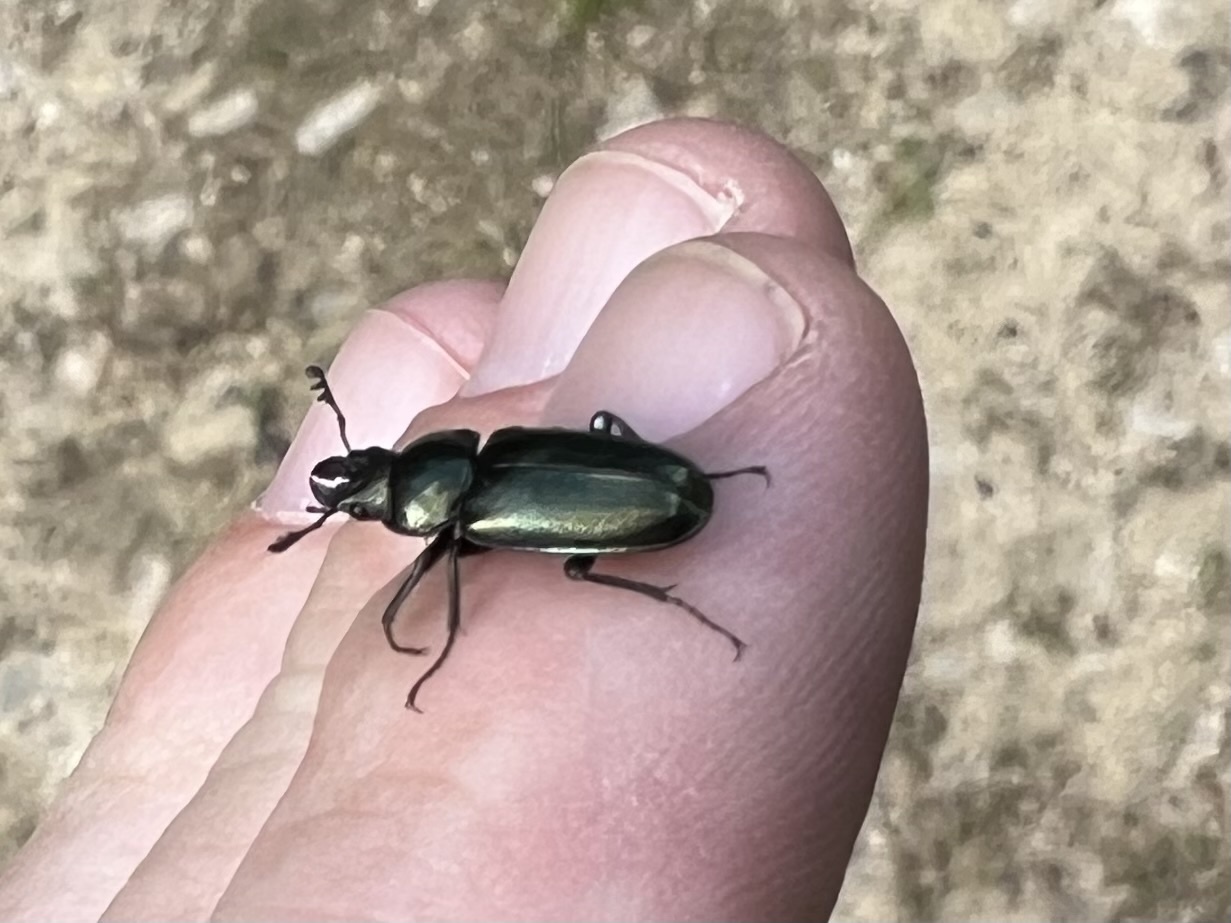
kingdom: Animalia
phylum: Arthropoda
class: Insecta
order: Coleoptera
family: Lucanidae
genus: Platycerus
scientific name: Platycerus caraboides
